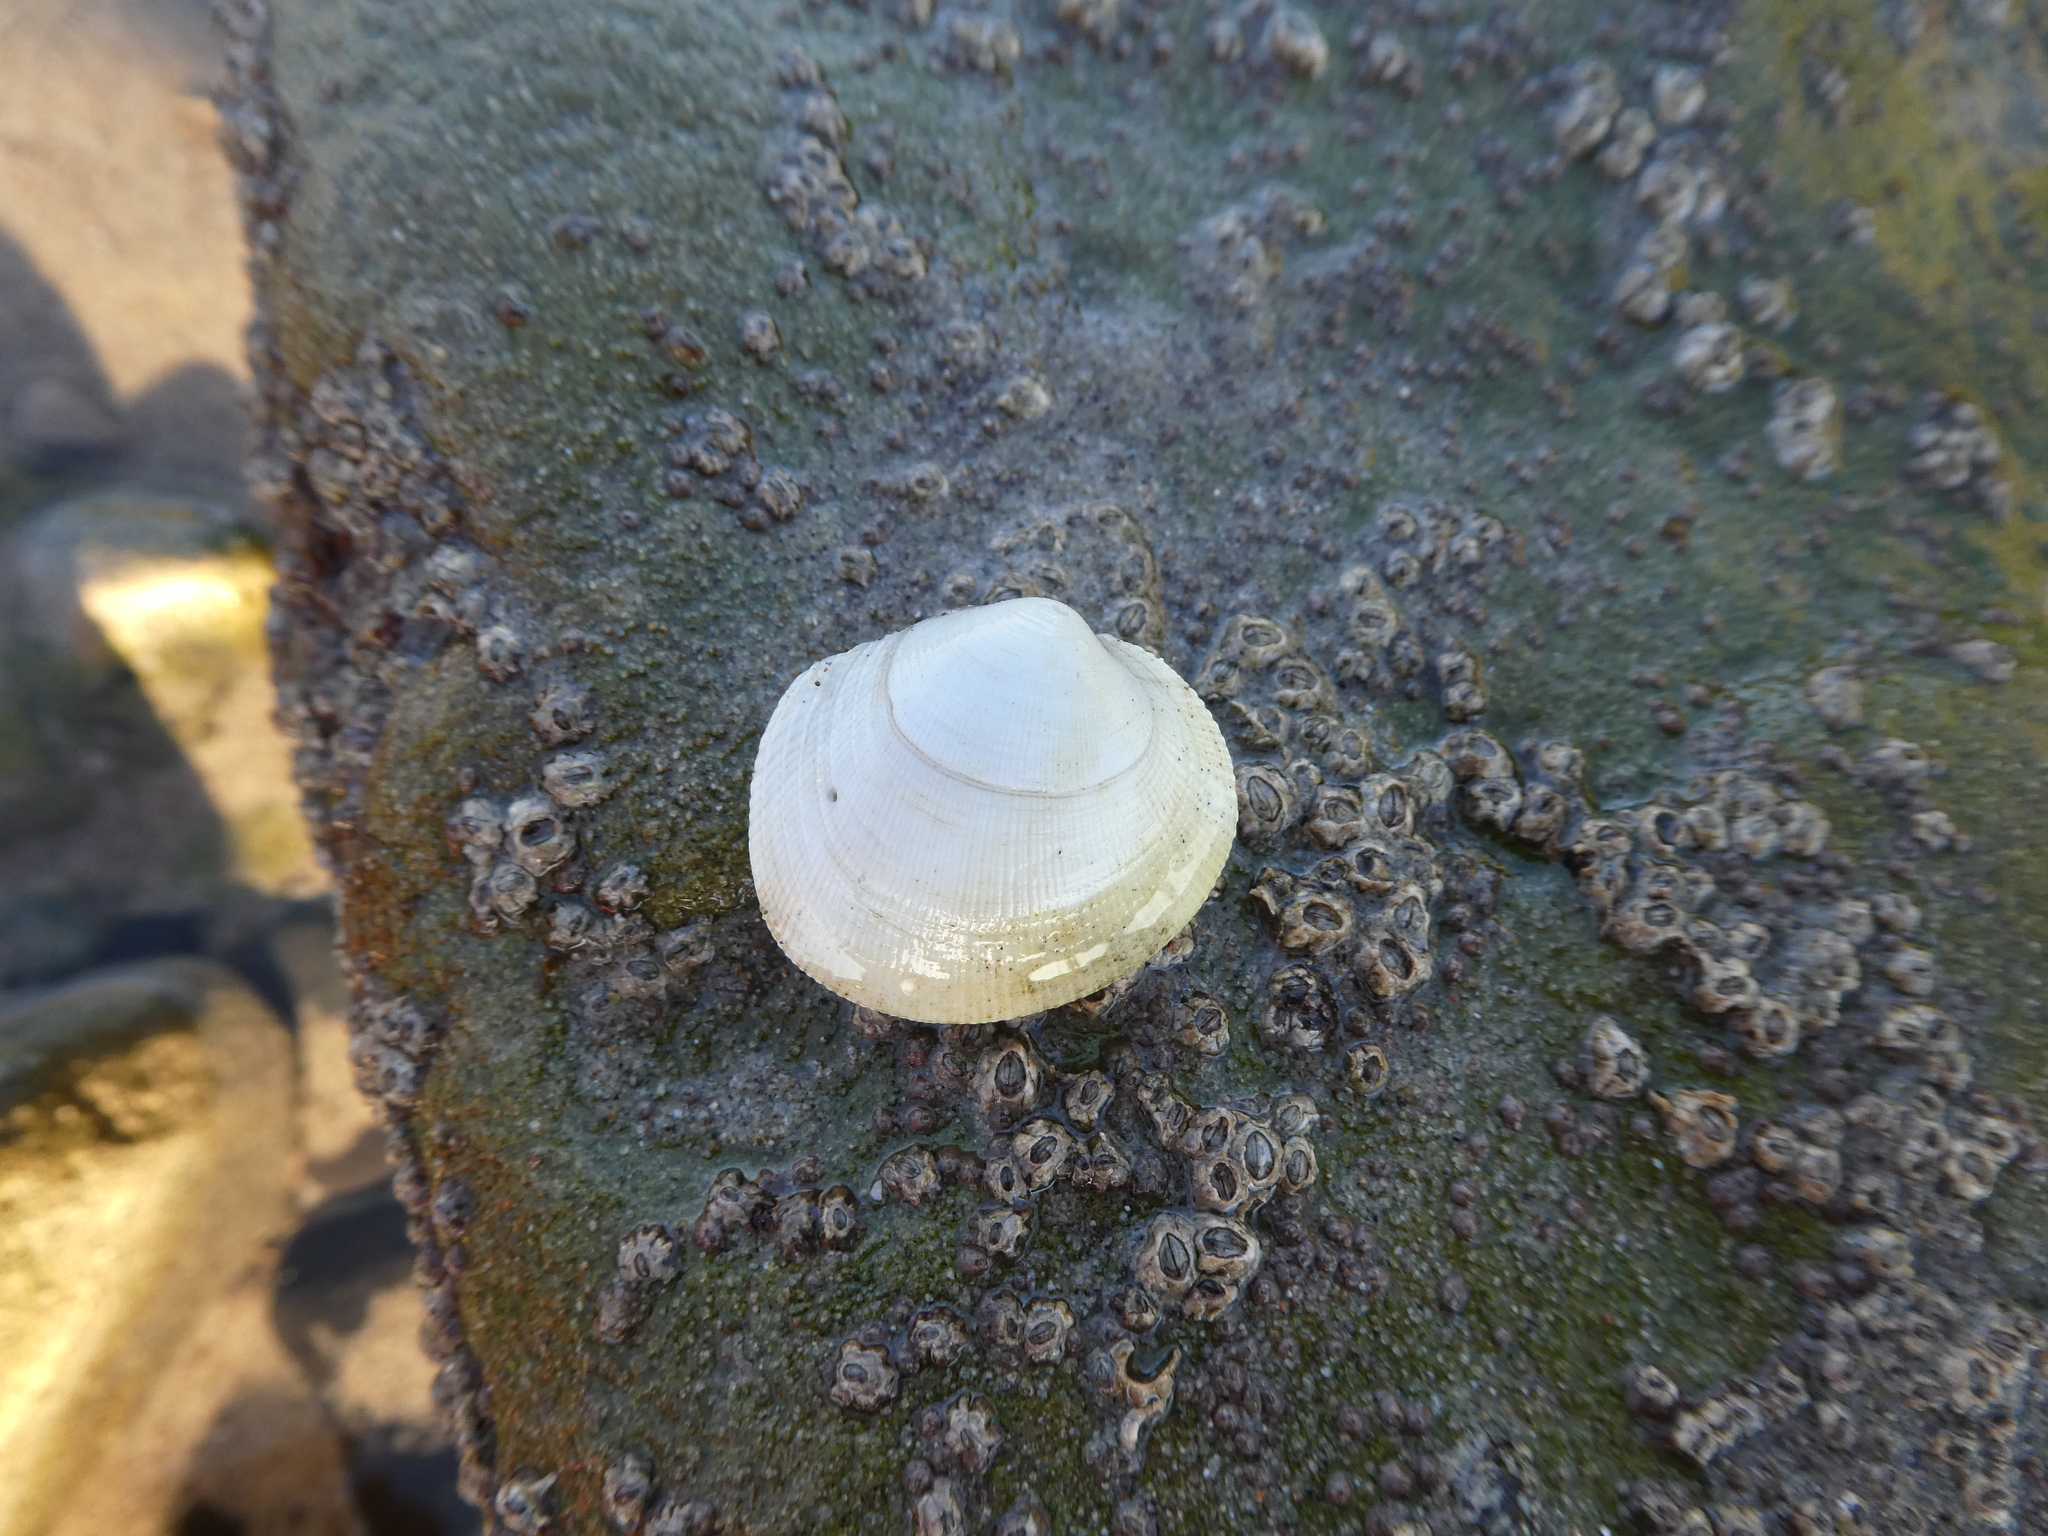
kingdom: Animalia
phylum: Mollusca
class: Bivalvia
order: Venerida
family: Veneridae
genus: Leukoma
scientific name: Leukoma staminea
